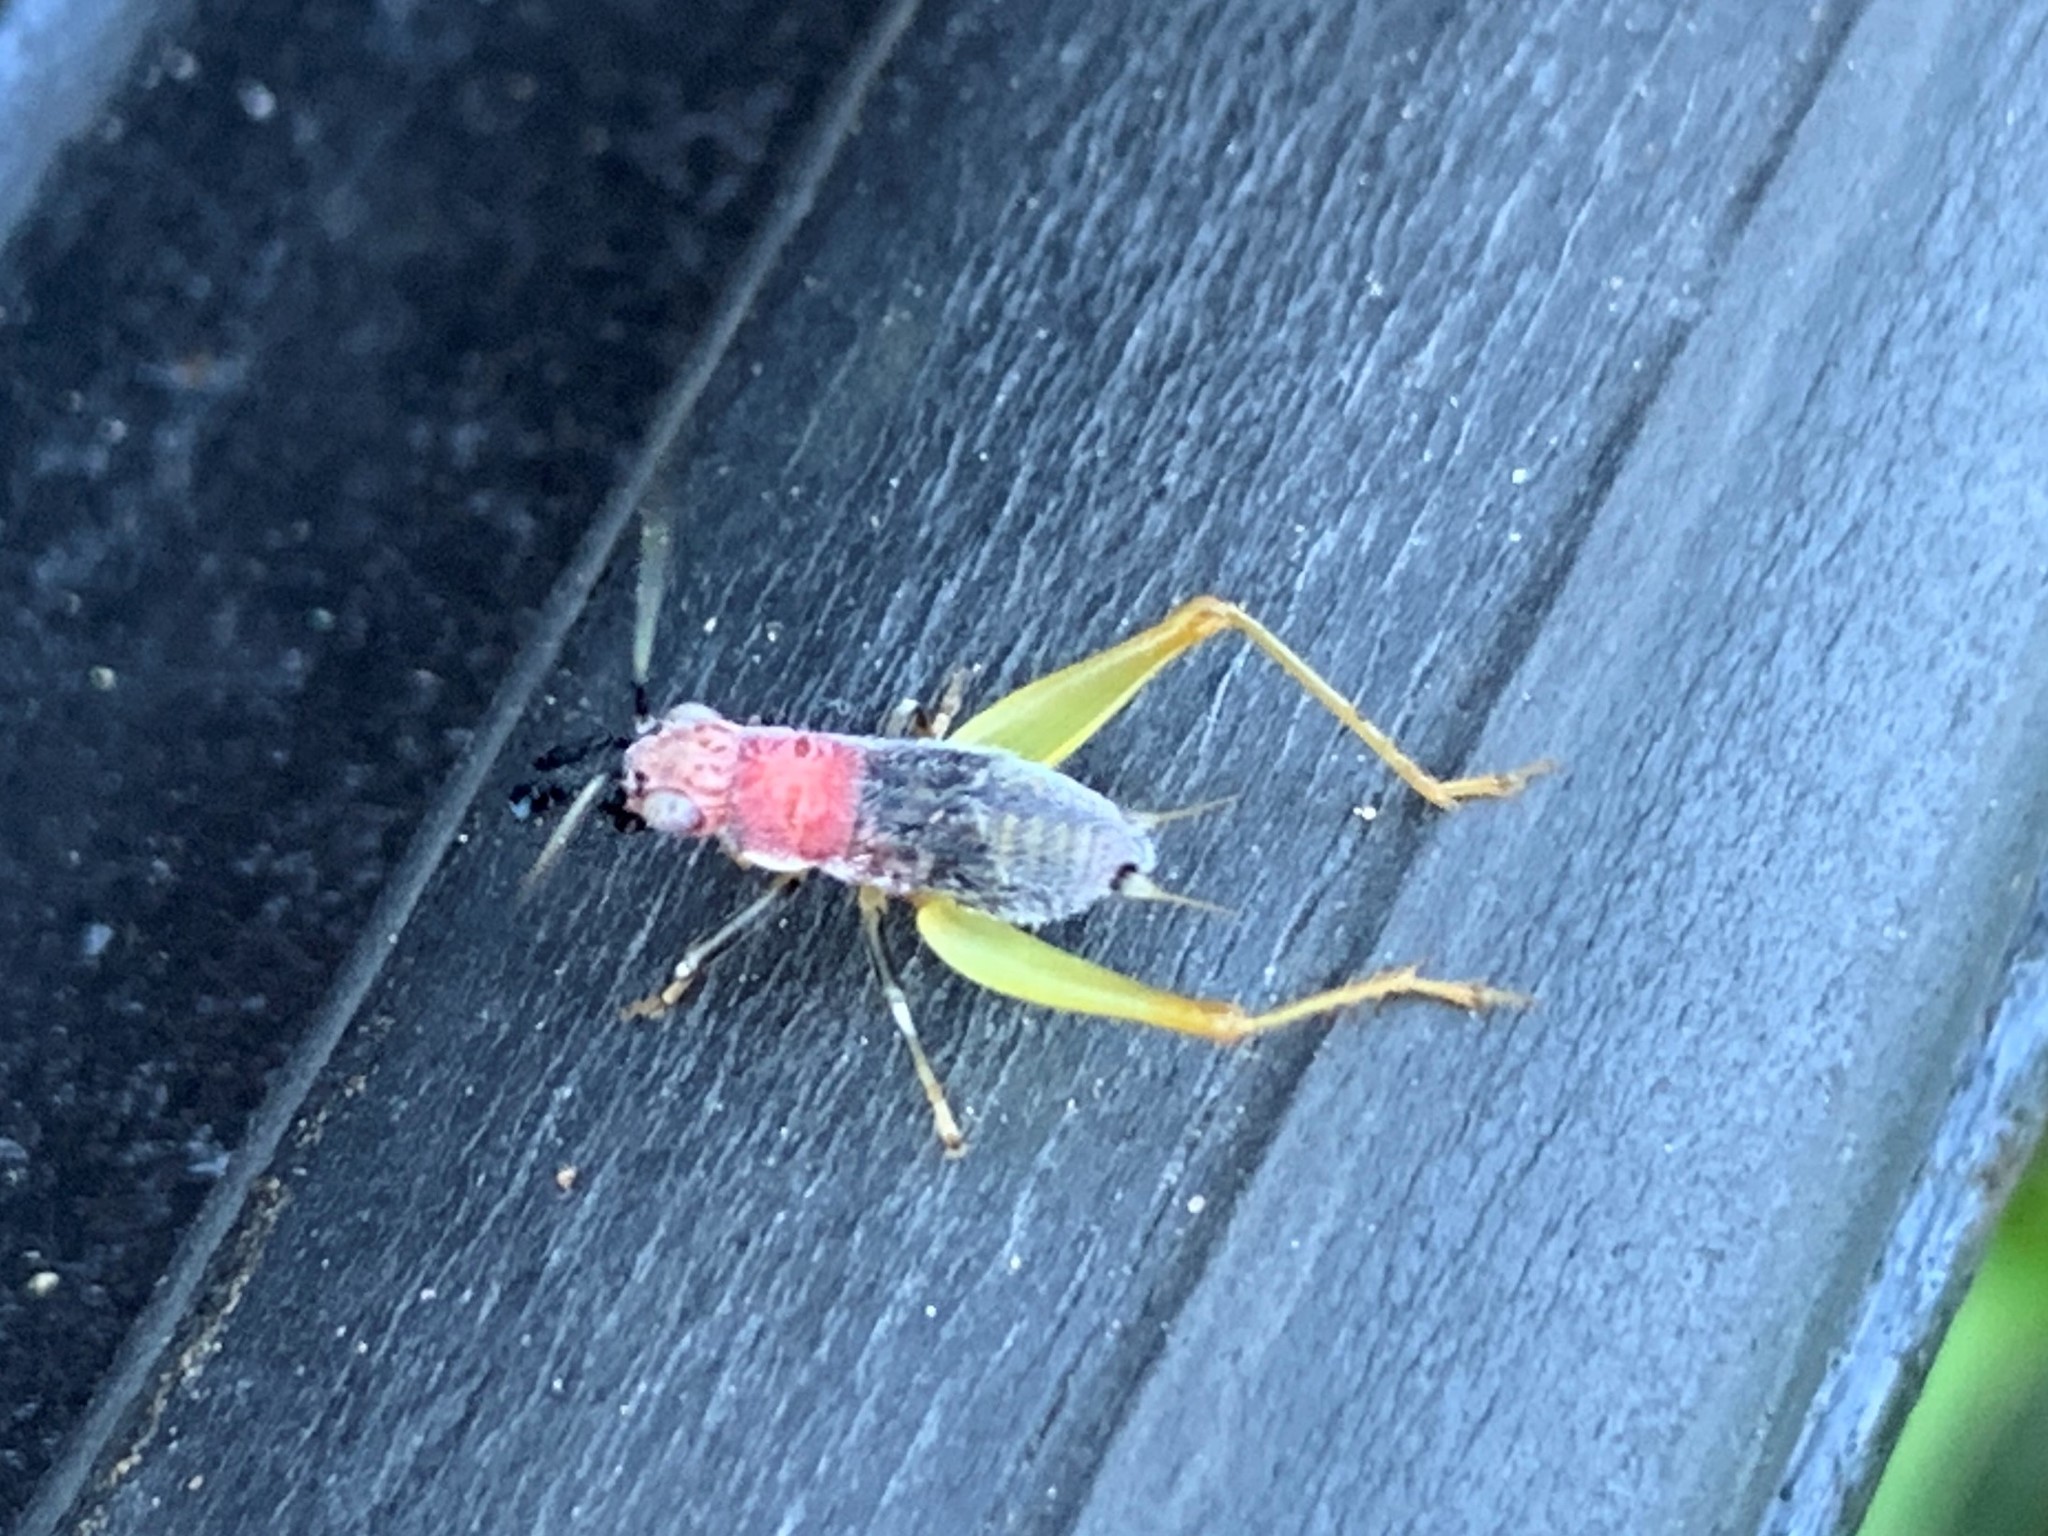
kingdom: Animalia
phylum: Arthropoda
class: Insecta
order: Orthoptera
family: Trigonidiidae
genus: Phyllopalpus
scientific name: Phyllopalpus pulchellus
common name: Handsome trig
